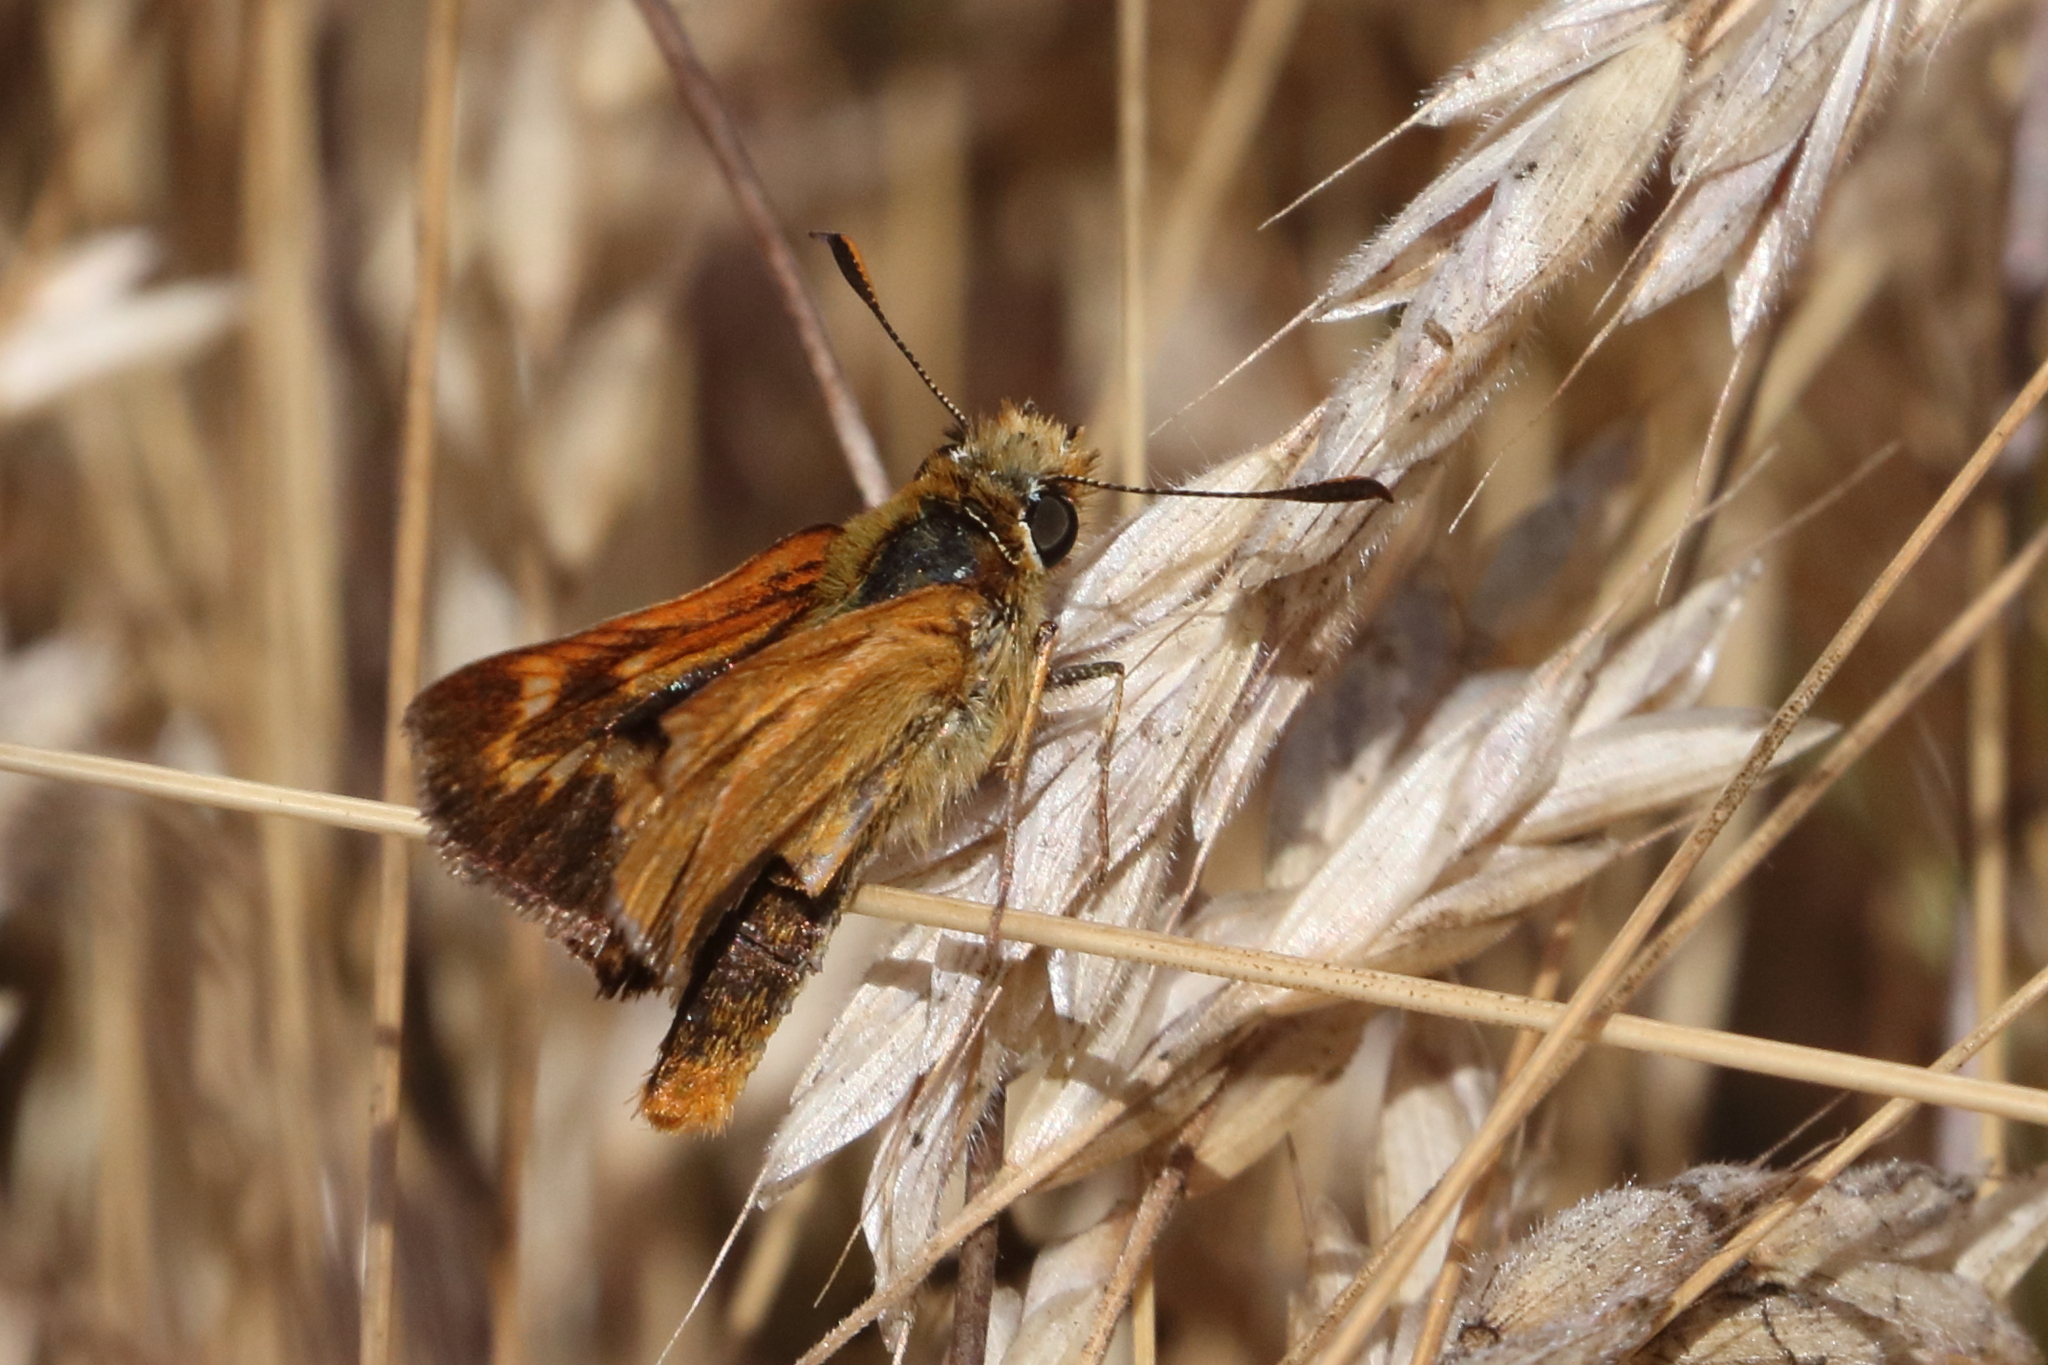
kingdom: Animalia
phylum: Arthropoda
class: Insecta
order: Lepidoptera
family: Hesperiidae
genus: Ochlodes
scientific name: Ochlodes agricola
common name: Rural skipper
